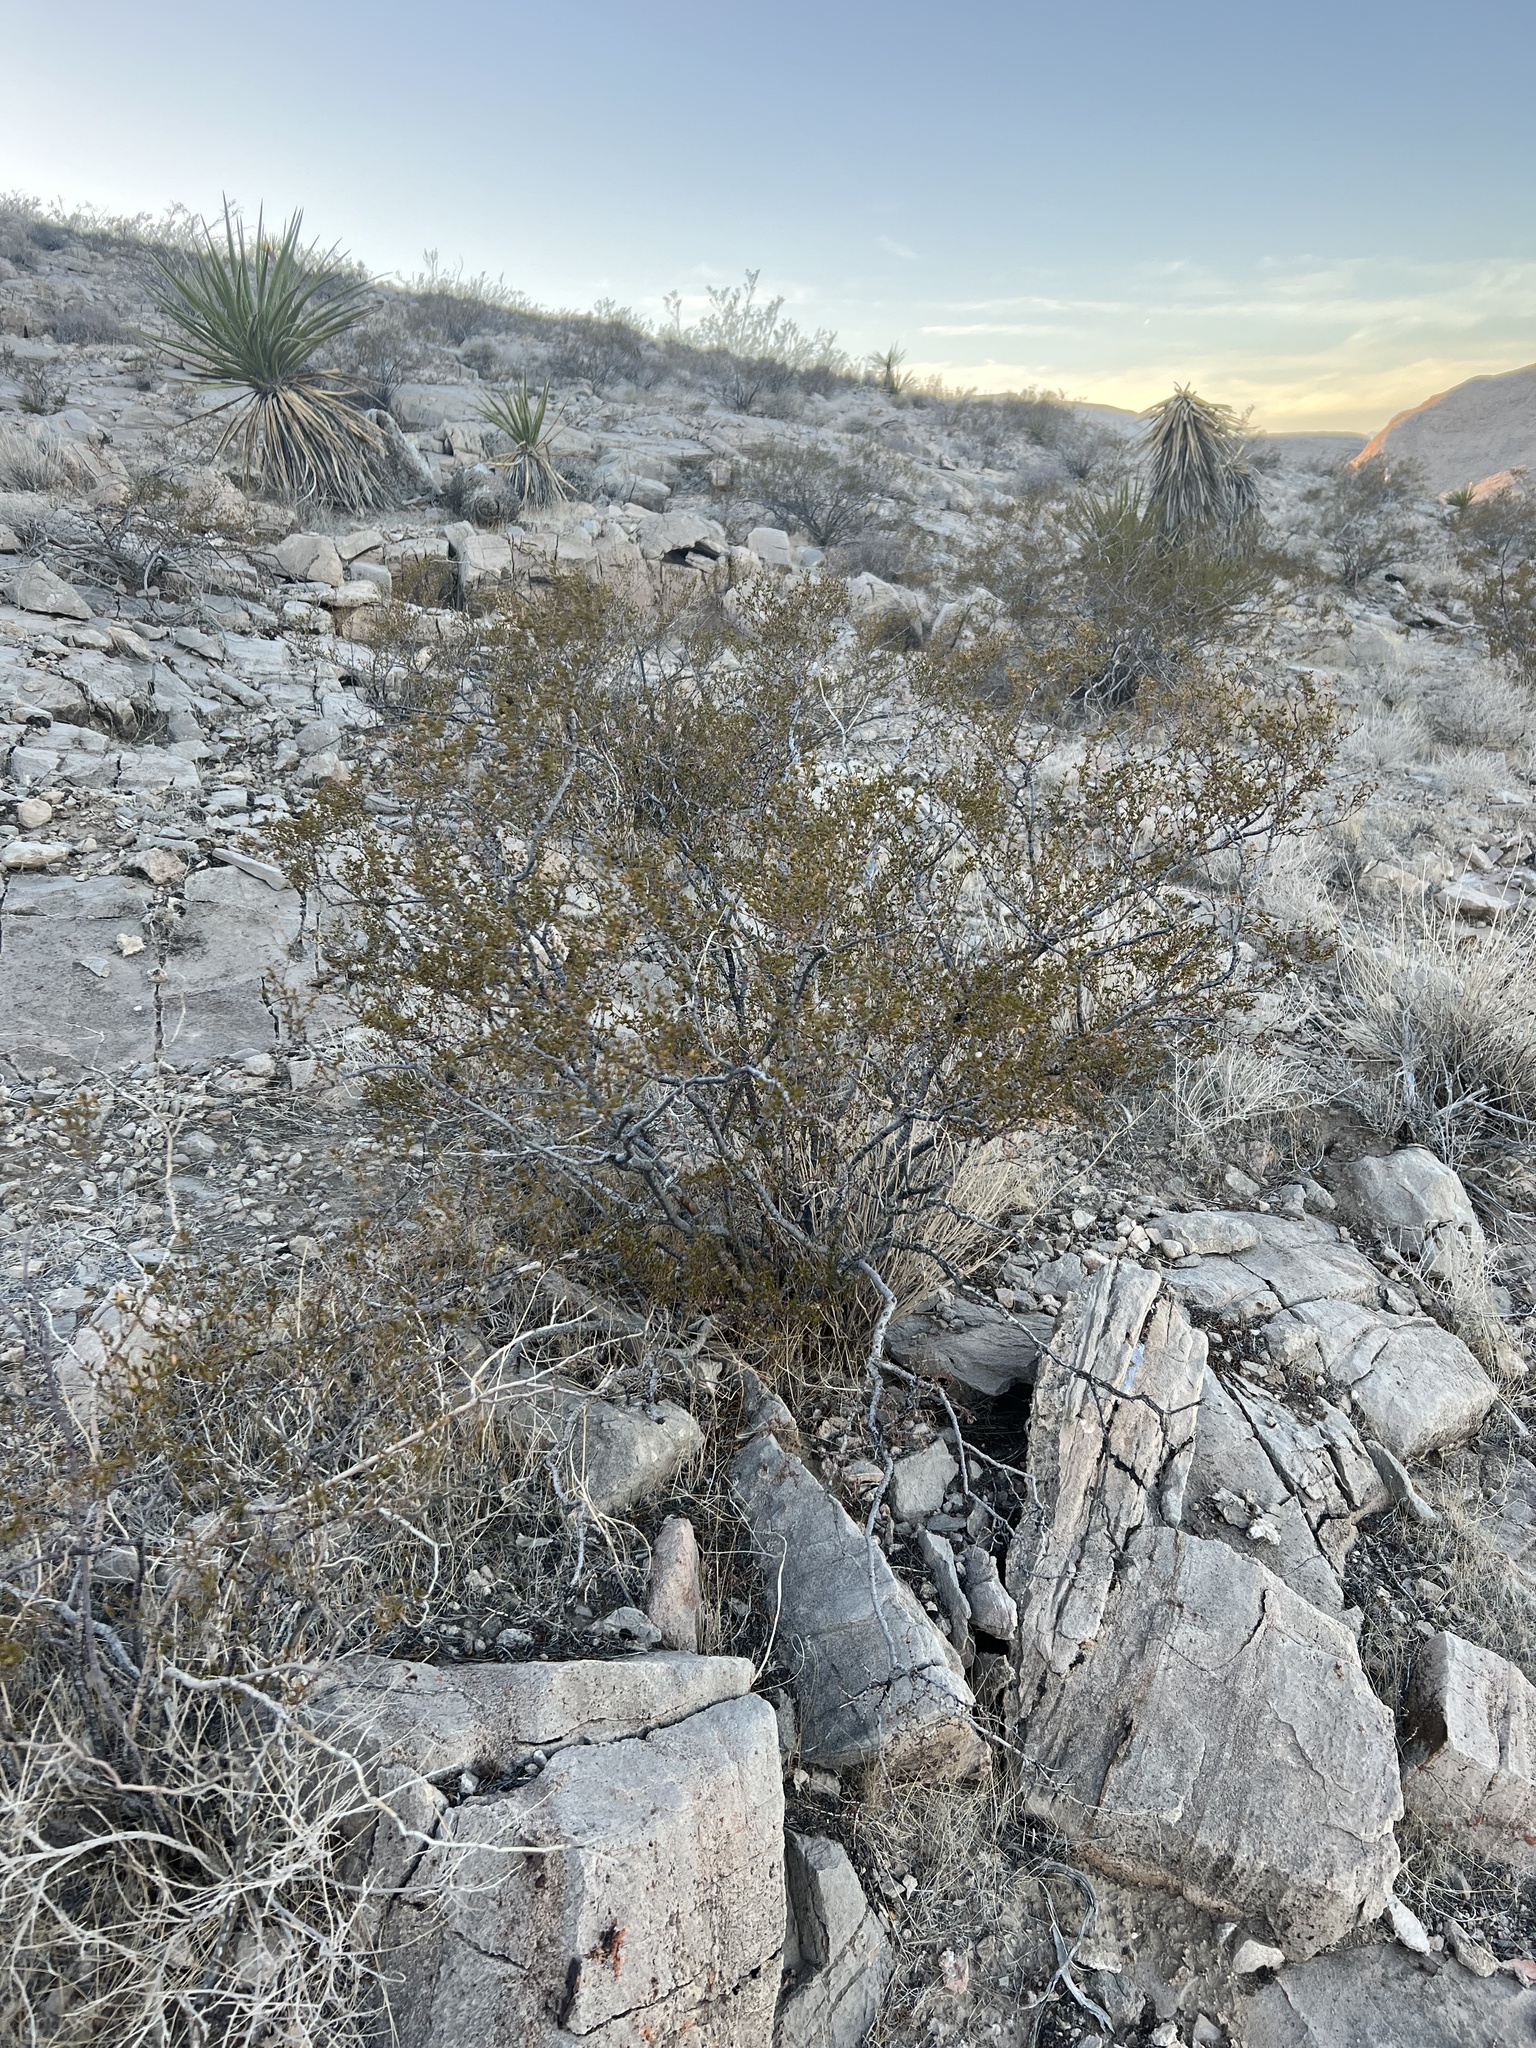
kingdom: Plantae
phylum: Tracheophyta
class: Magnoliopsida
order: Zygophyllales
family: Zygophyllaceae
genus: Larrea
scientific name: Larrea tridentata
